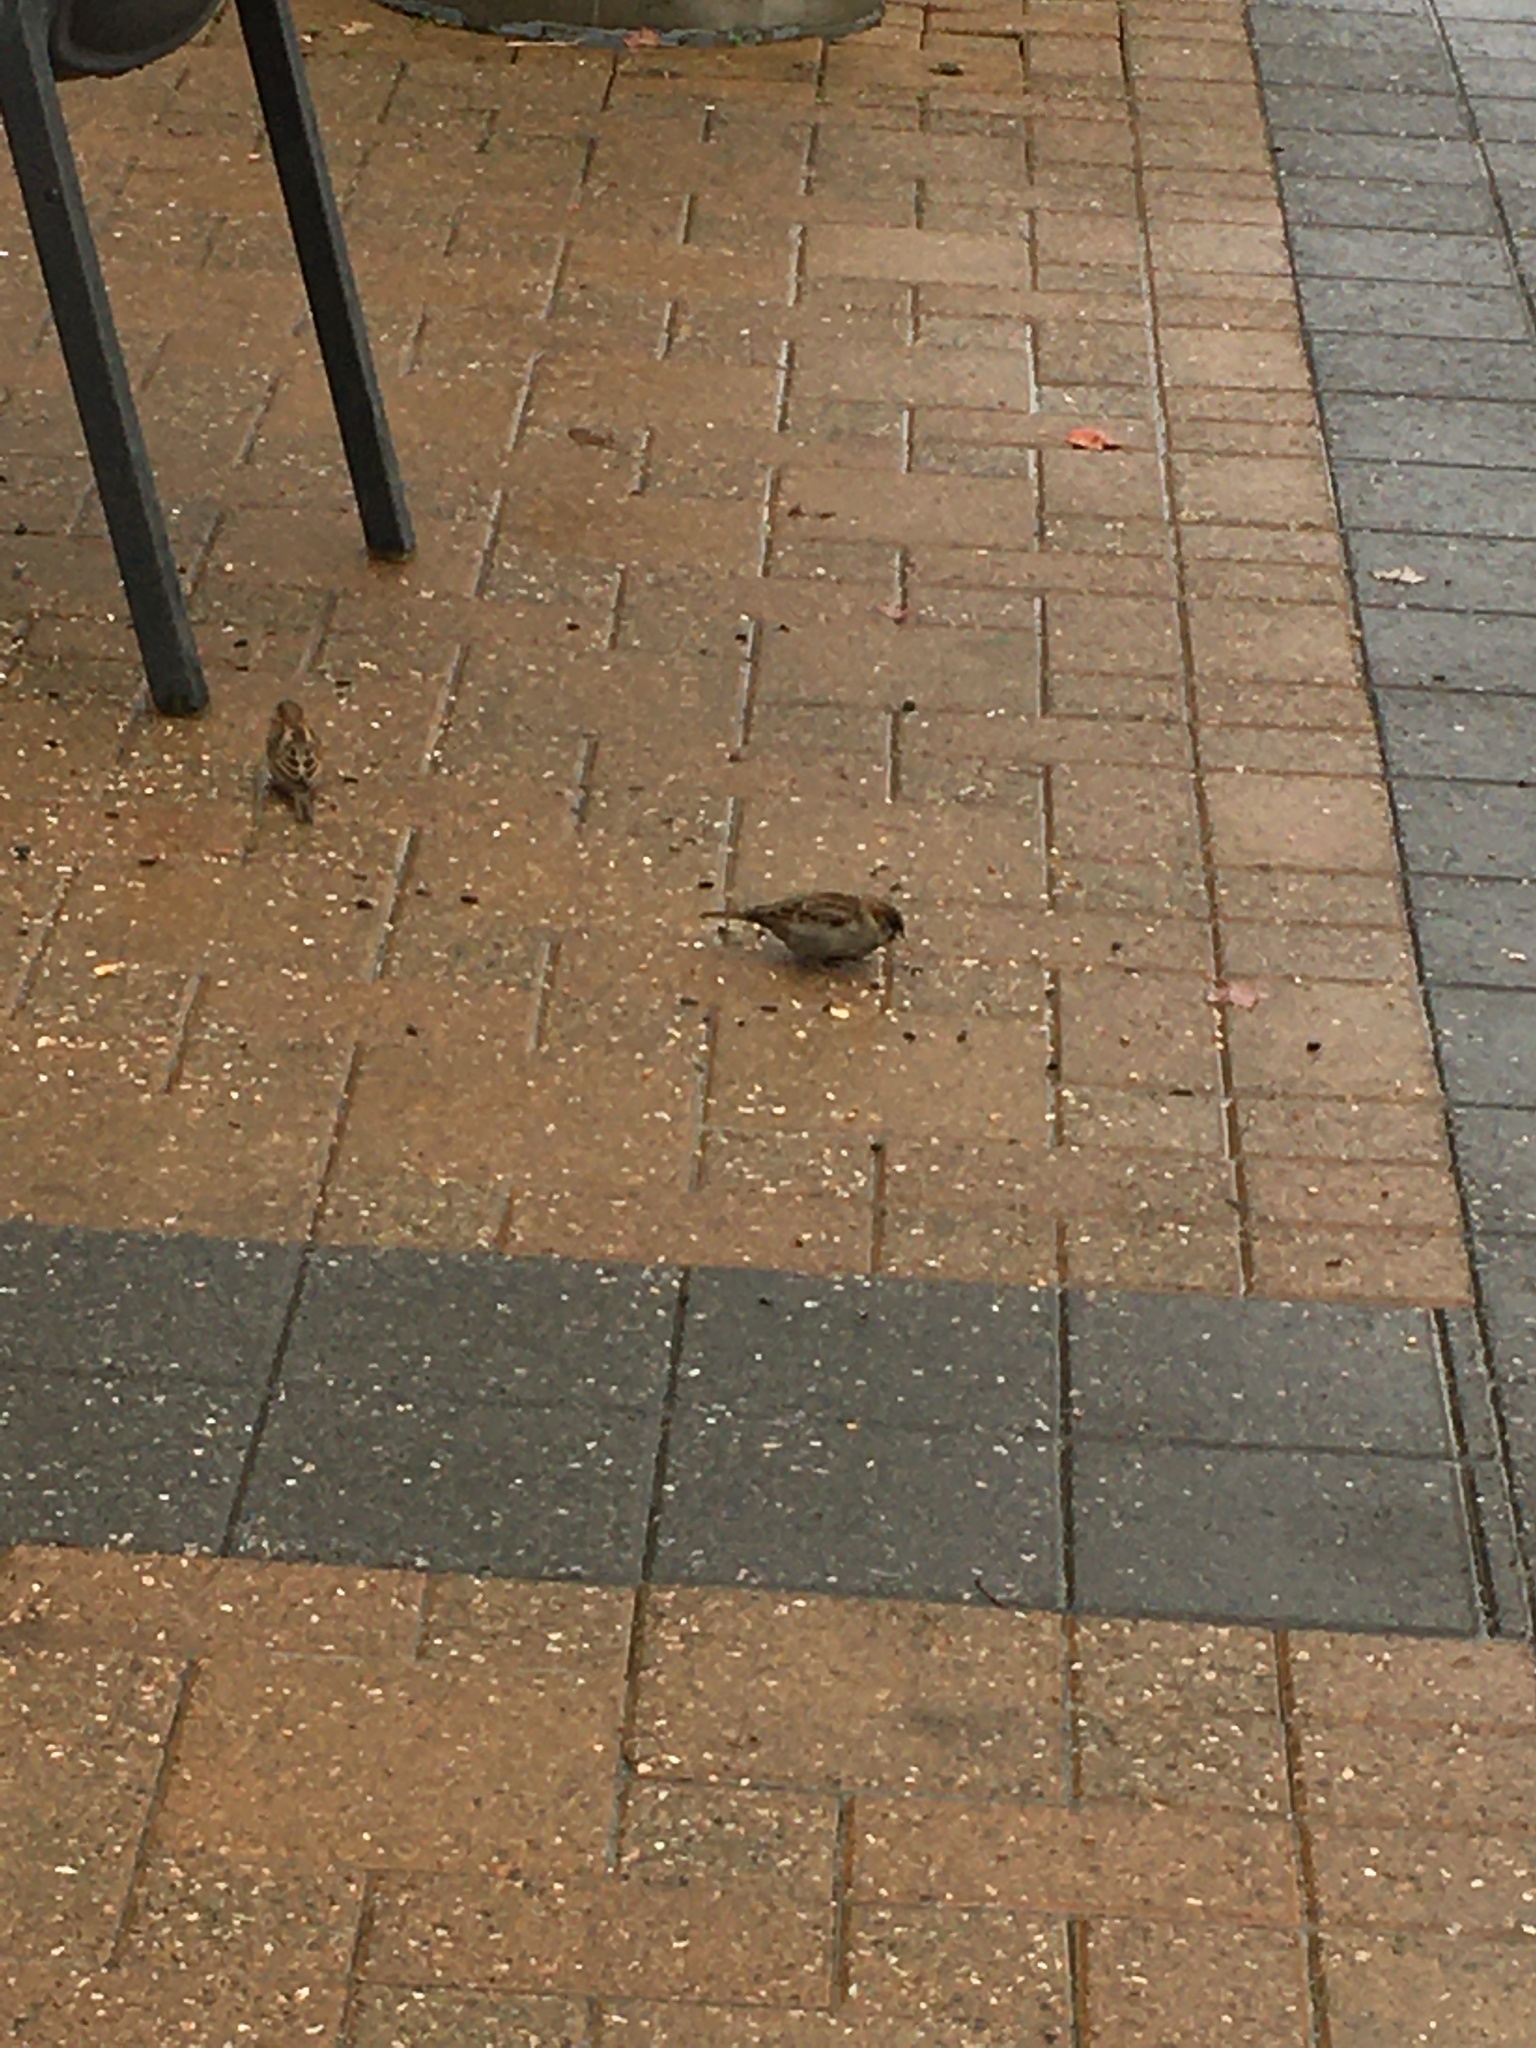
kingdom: Animalia
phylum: Chordata
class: Aves
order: Passeriformes
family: Passeridae
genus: Passer
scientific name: Passer domesticus
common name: House sparrow
